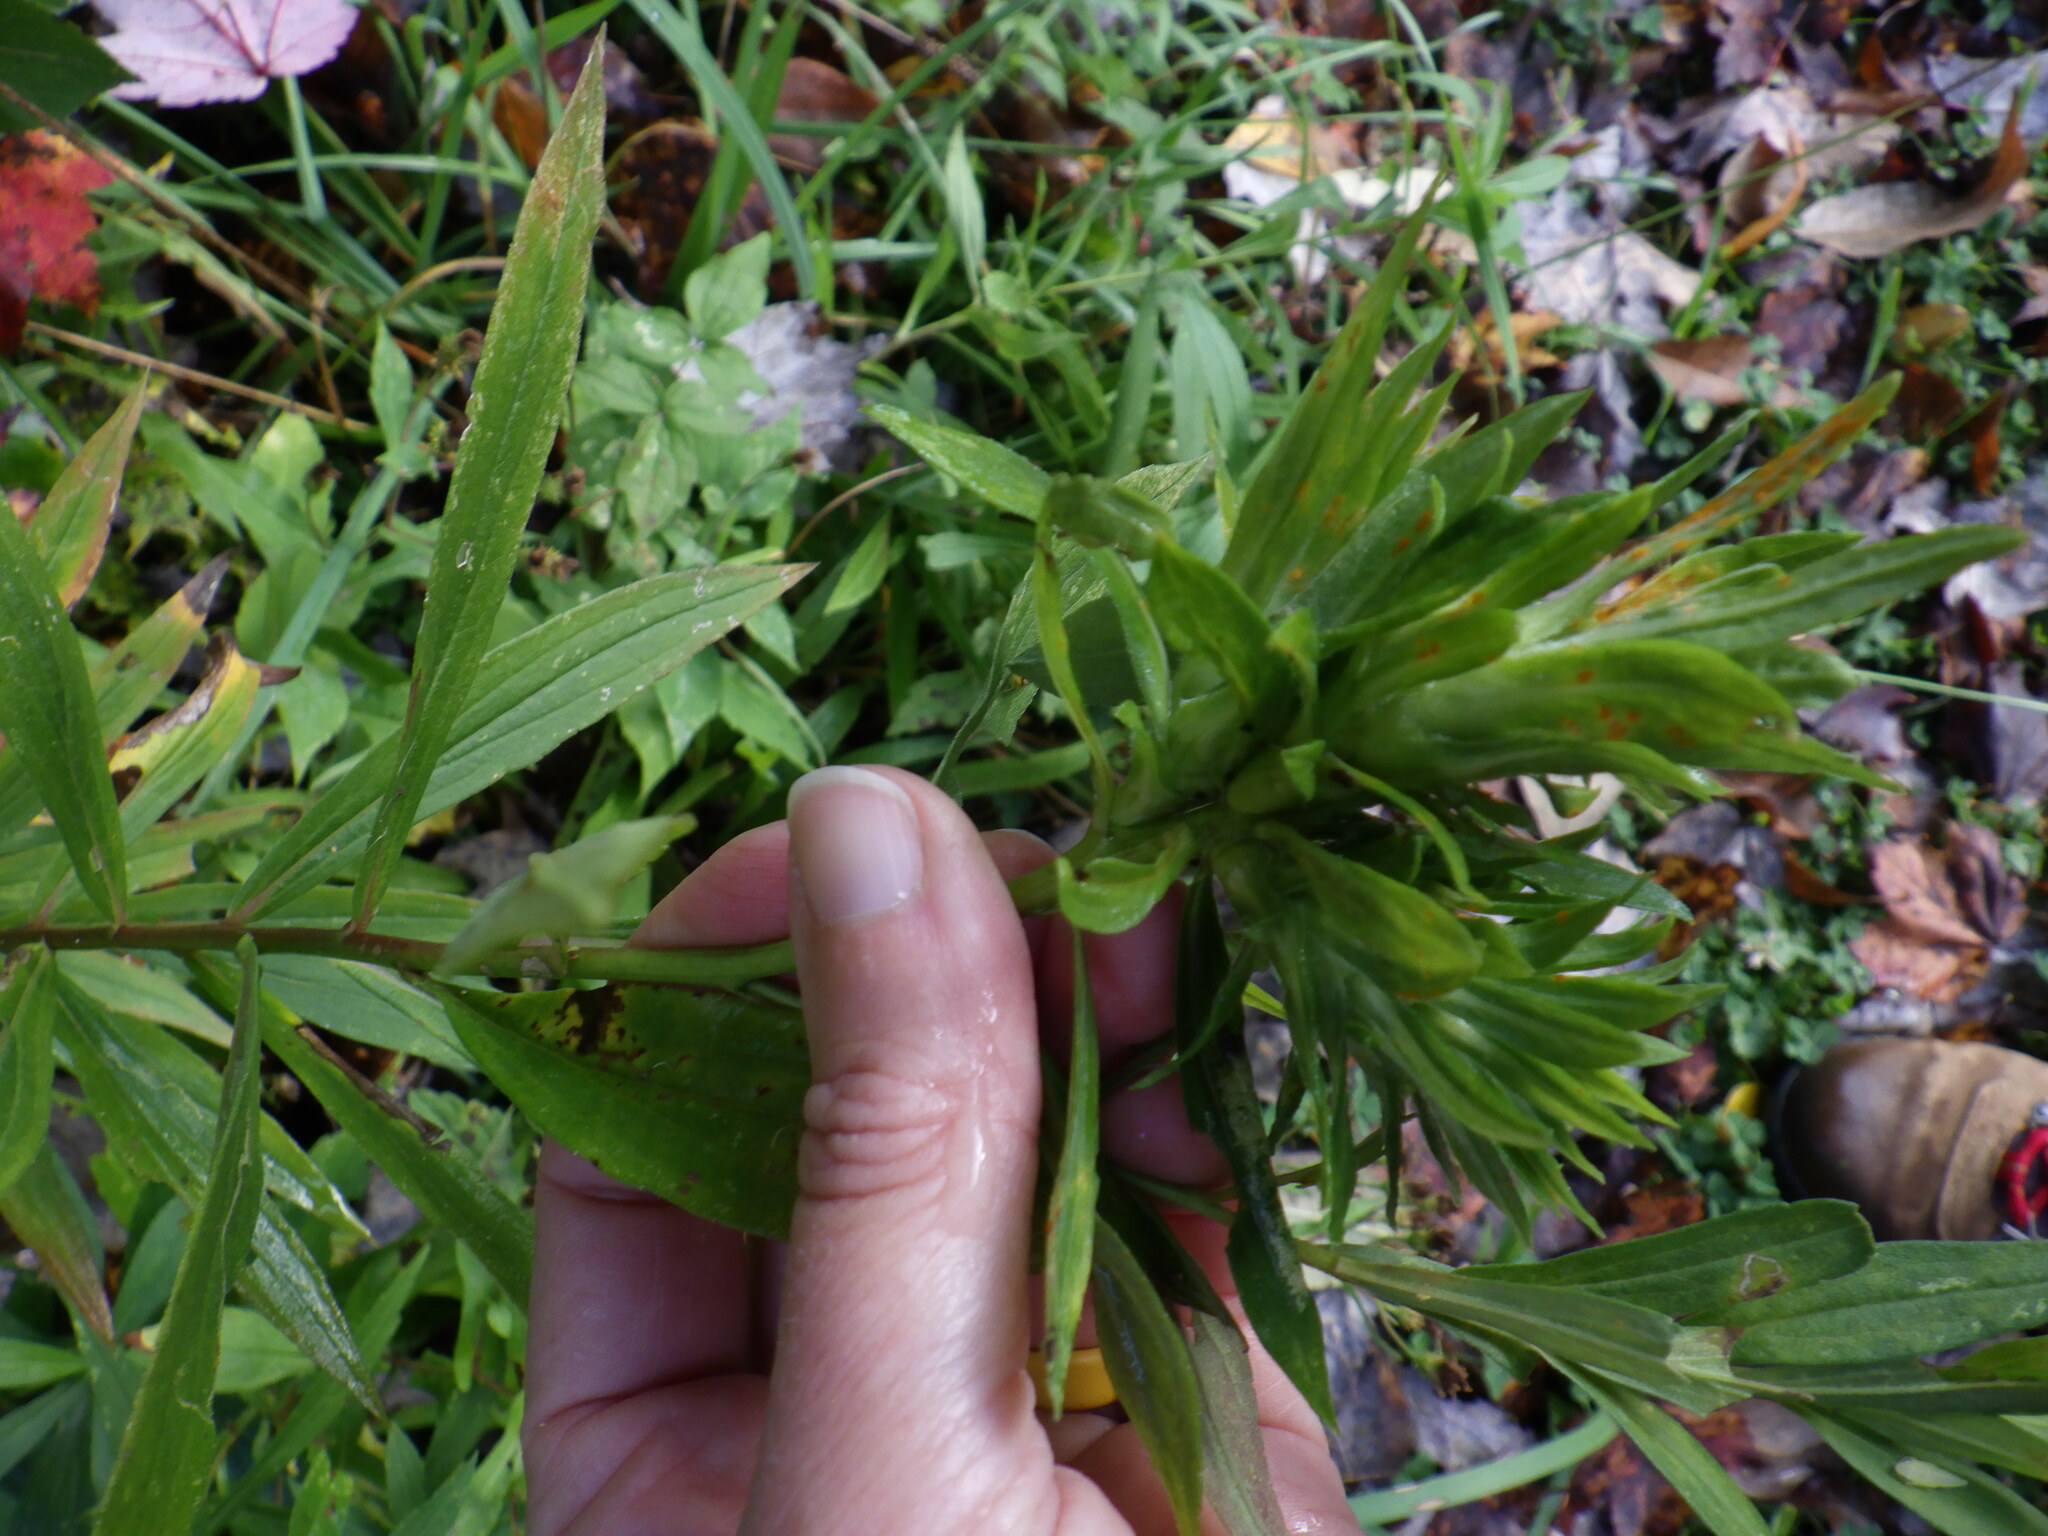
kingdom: Animalia
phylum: Arthropoda
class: Insecta
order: Diptera
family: Cecidomyiidae
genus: Rhopalomyia
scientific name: Rhopalomyia solidaginis
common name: Goldenrod bunch gall midge
